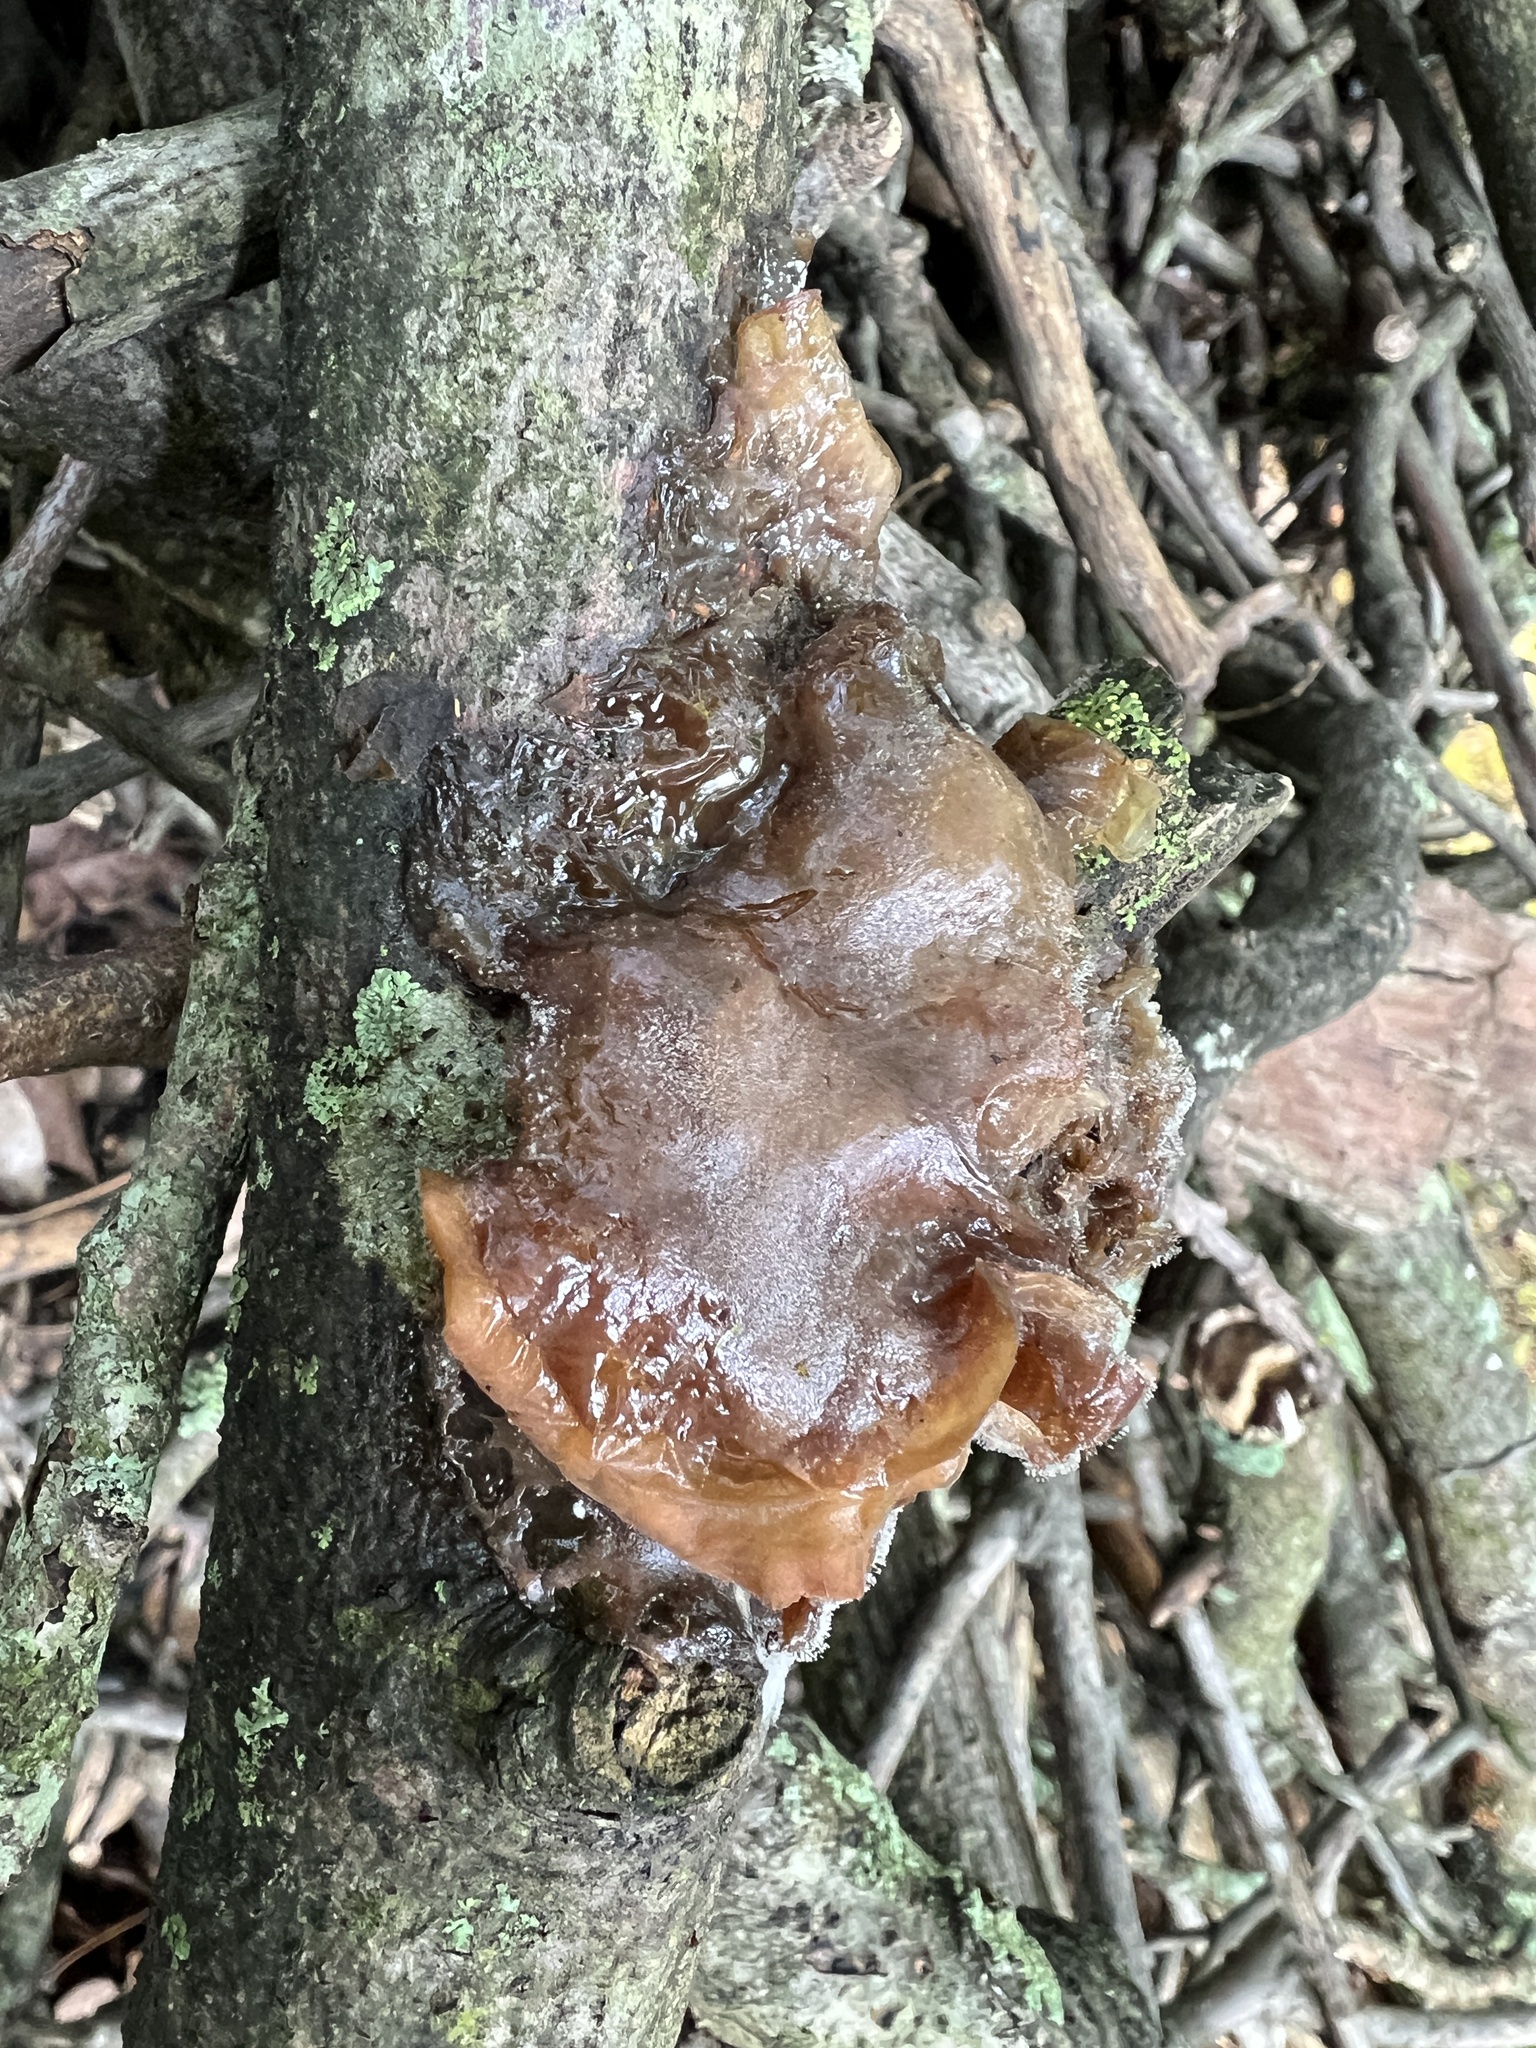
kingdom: Fungi
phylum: Basidiomycota
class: Agaricomycetes
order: Auriculariales
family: Auriculariaceae
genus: Auricularia
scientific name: Auricularia fuscosuccinea
